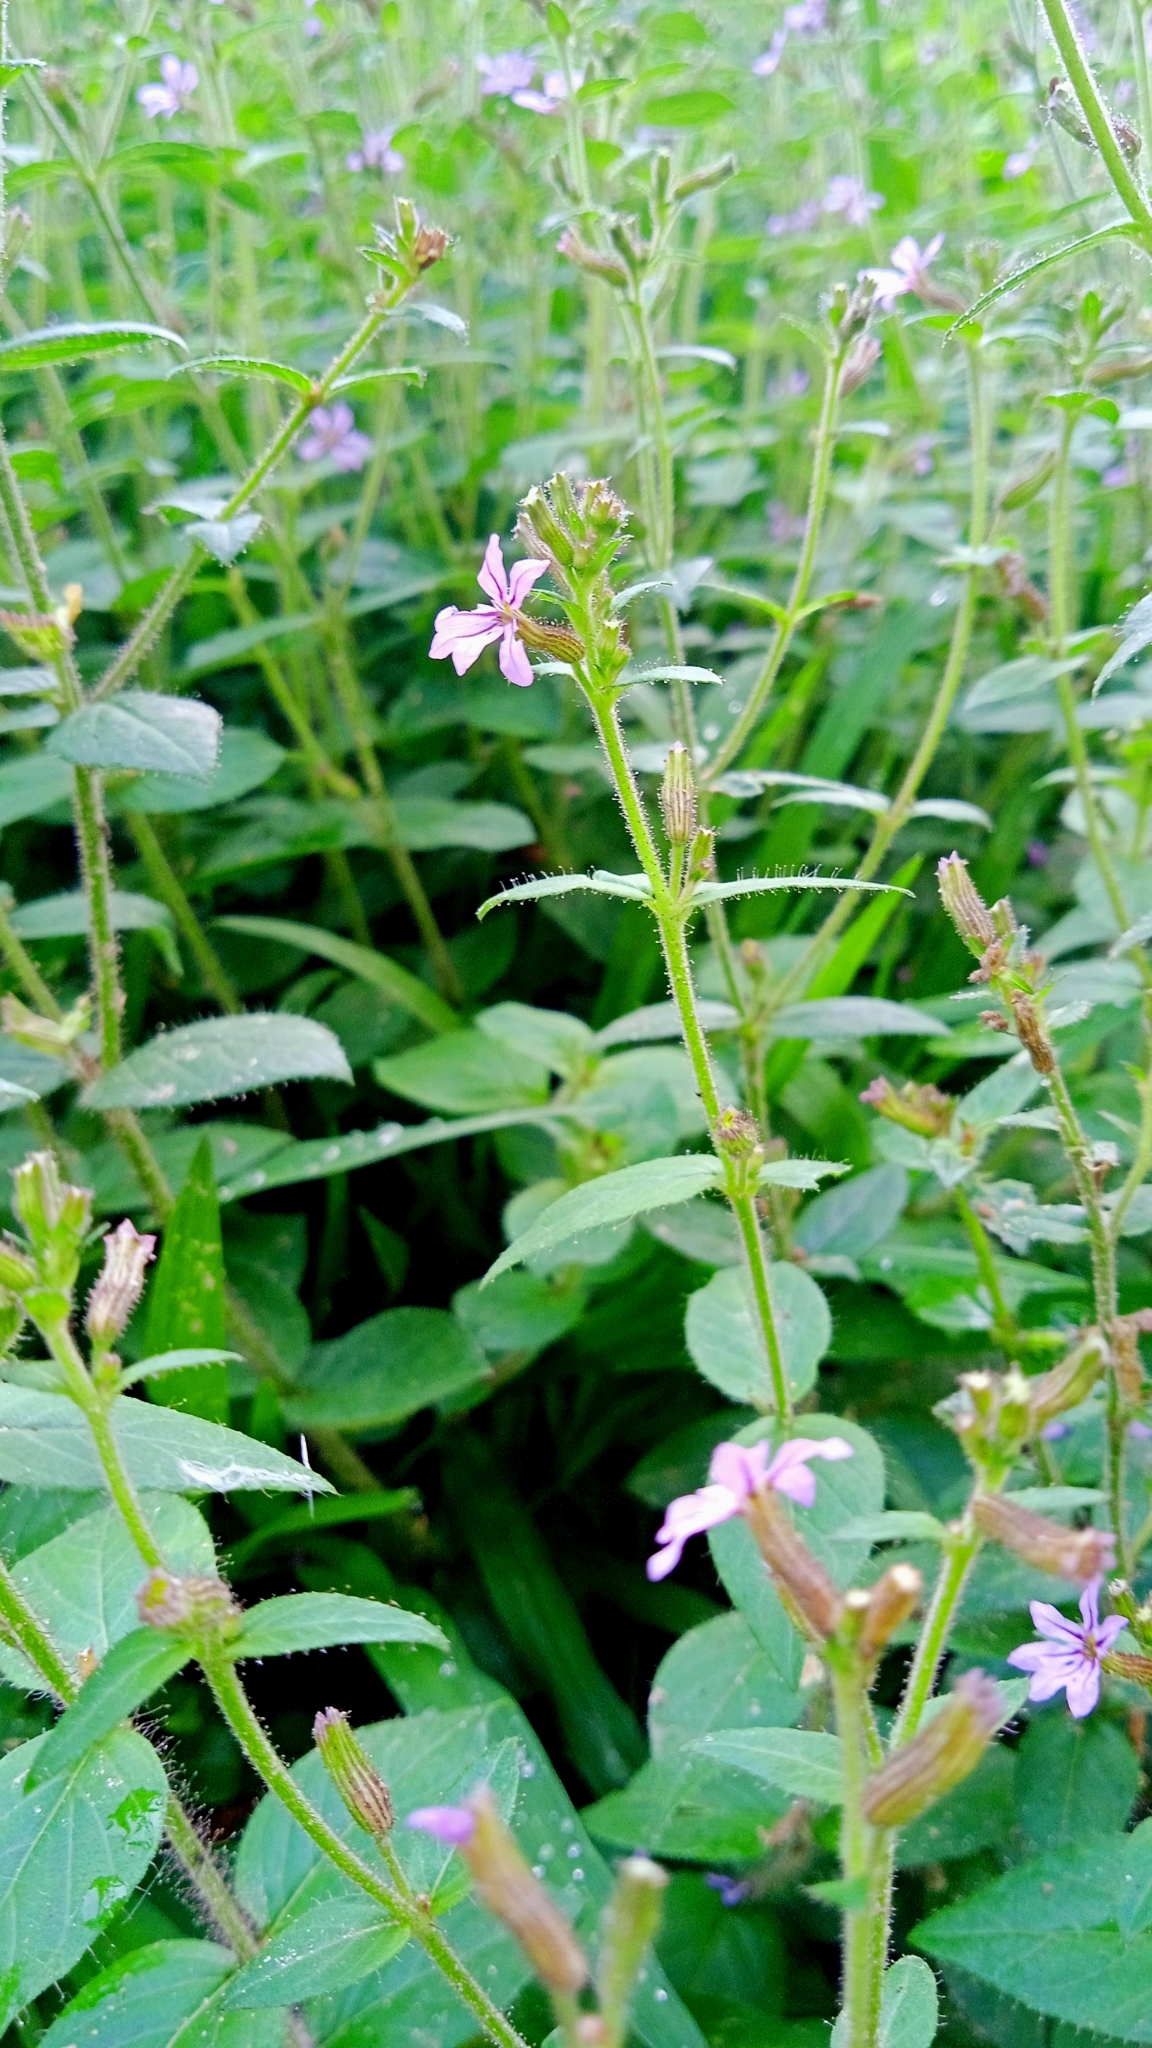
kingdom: Plantae
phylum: Tracheophyta
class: Magnoliopsida
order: Myrtales
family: Lythraceae
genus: Cuphea
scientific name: Cuphea calophylla
